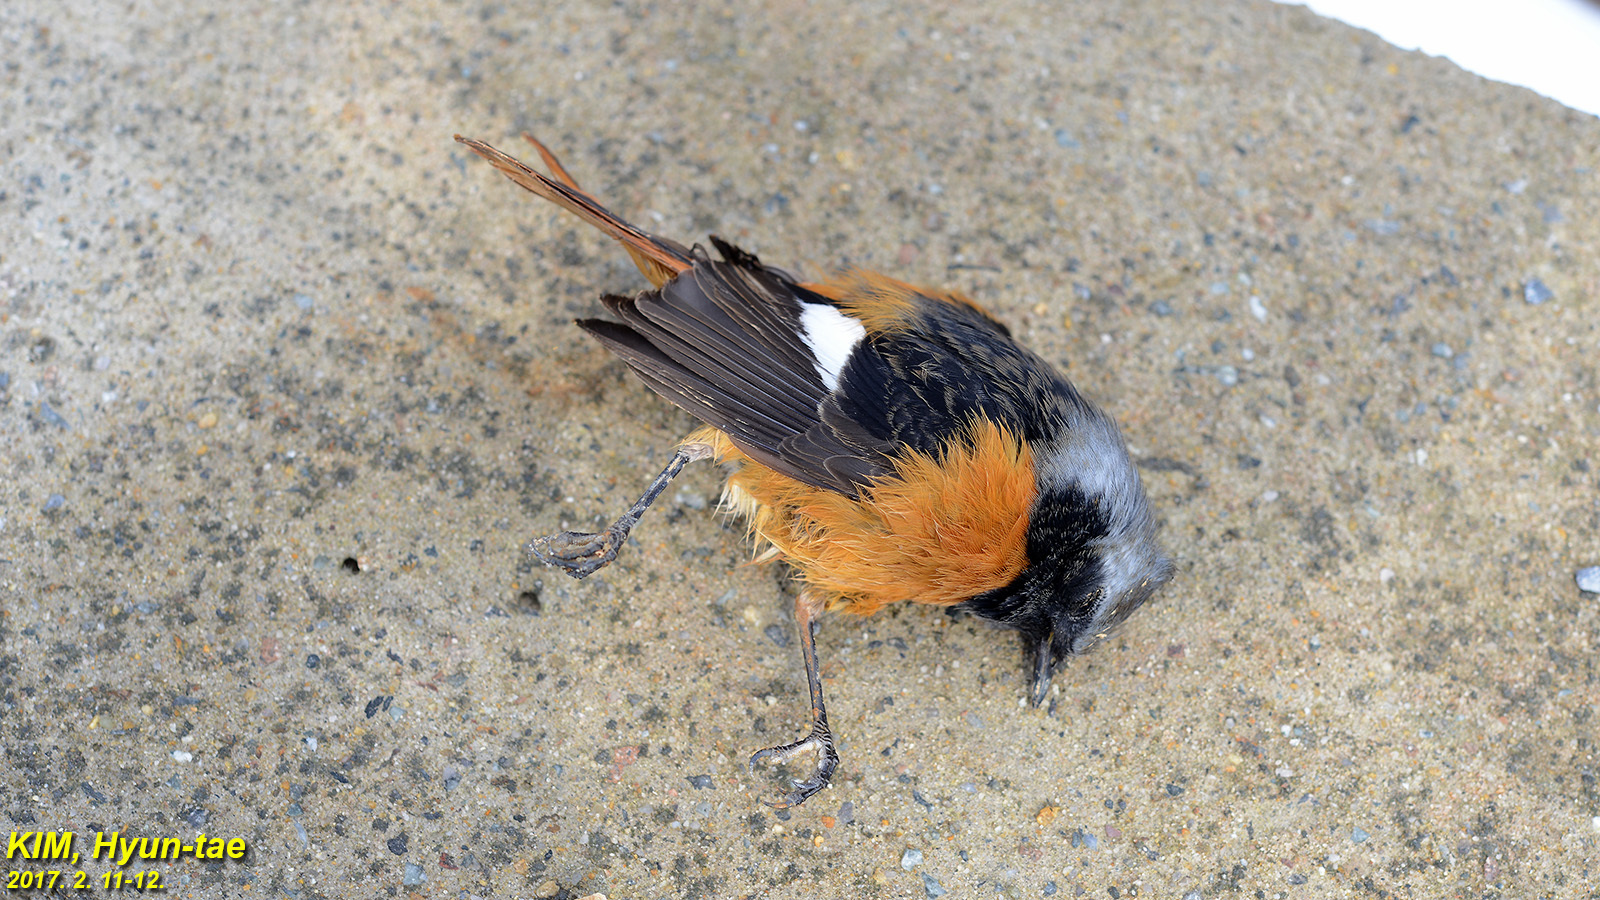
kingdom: Animalia
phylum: Chordata
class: Aves
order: Passeriformes
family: Muscicapidae
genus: Phoenicurus
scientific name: Phoenicurus auroreus
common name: Daurian redstart
